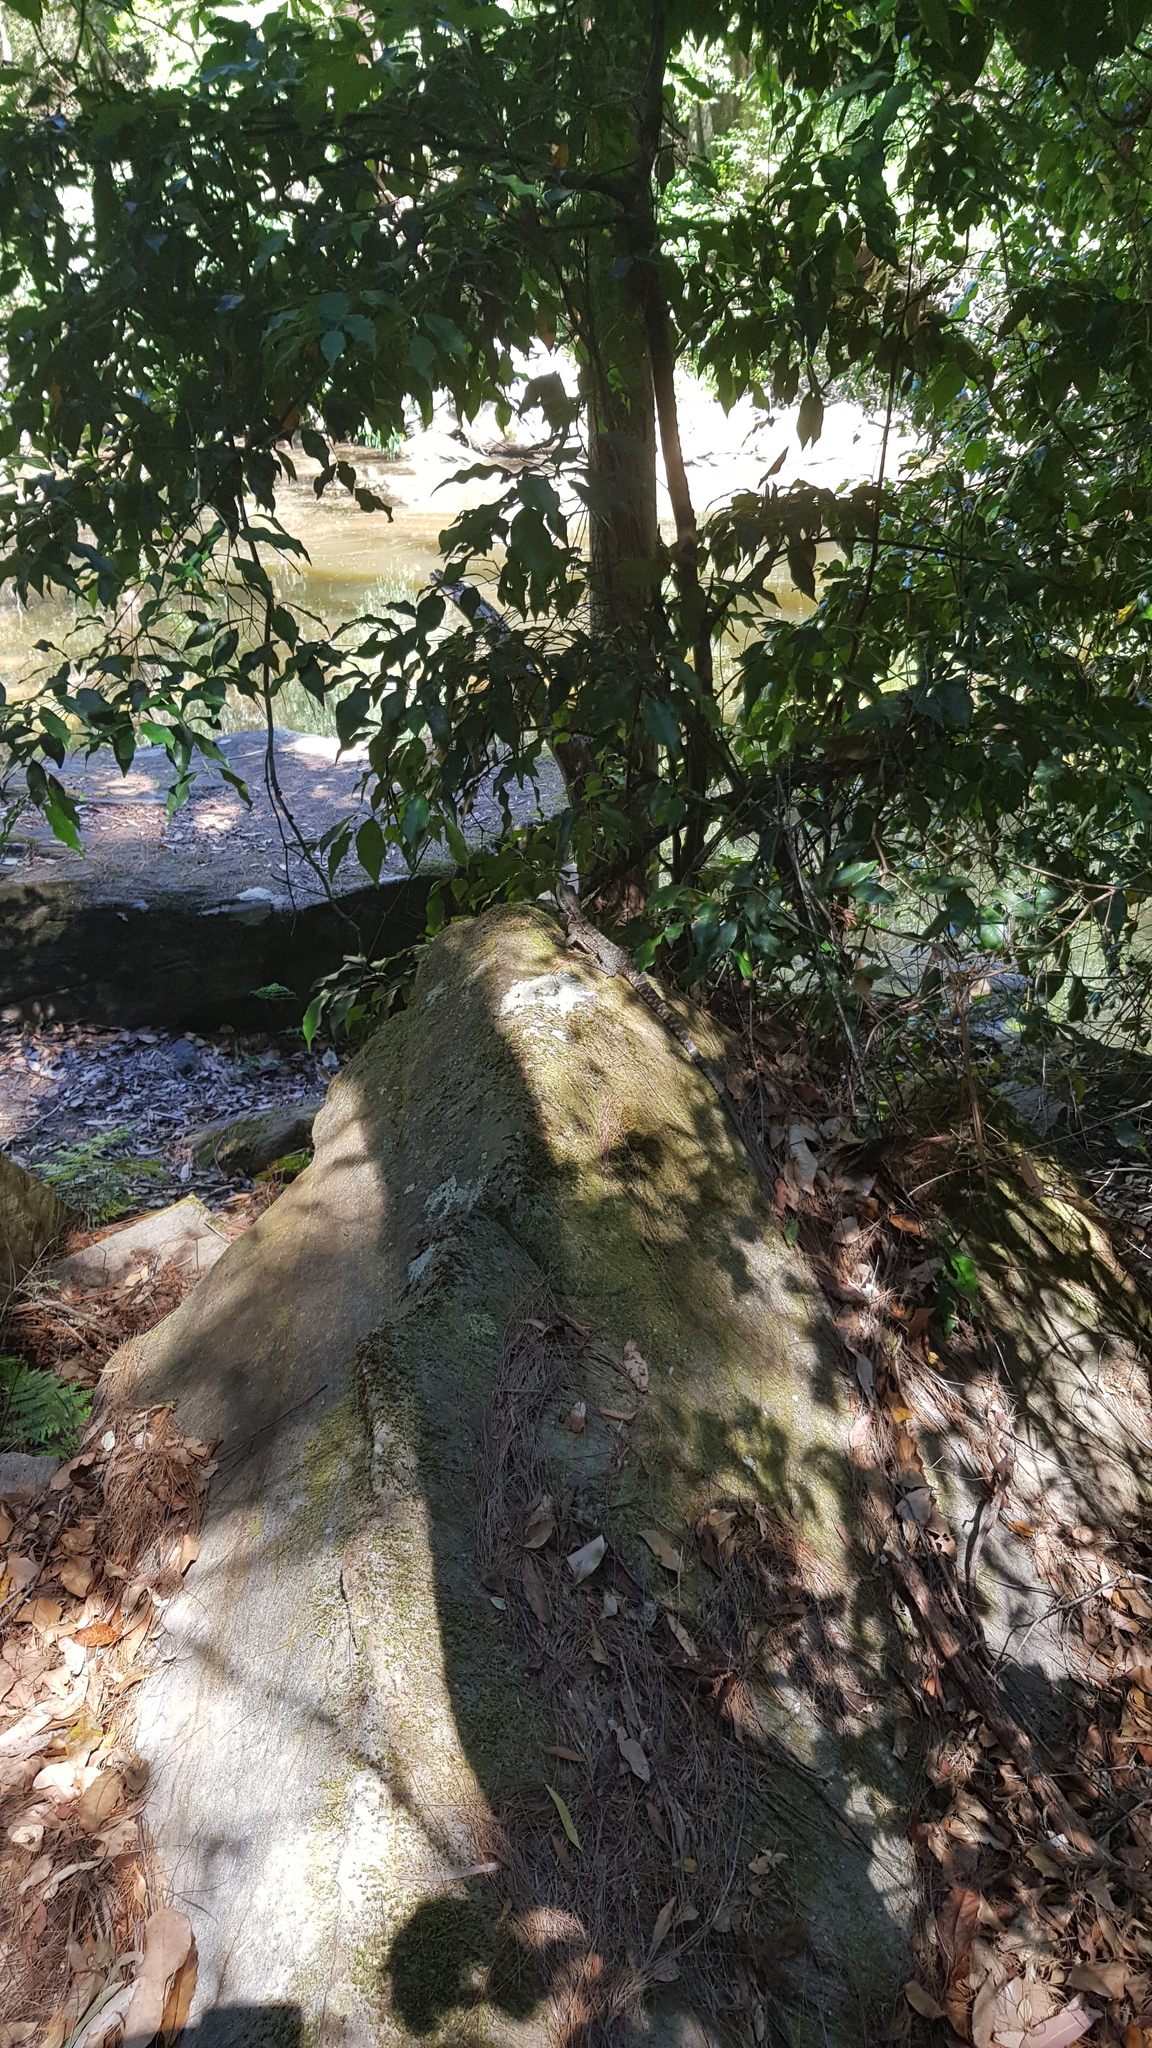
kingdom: Animalia
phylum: Chordata
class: Squamata
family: Agamidae
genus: Intellagama
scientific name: Intellagama lesueurii
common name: Eastern water dragon
